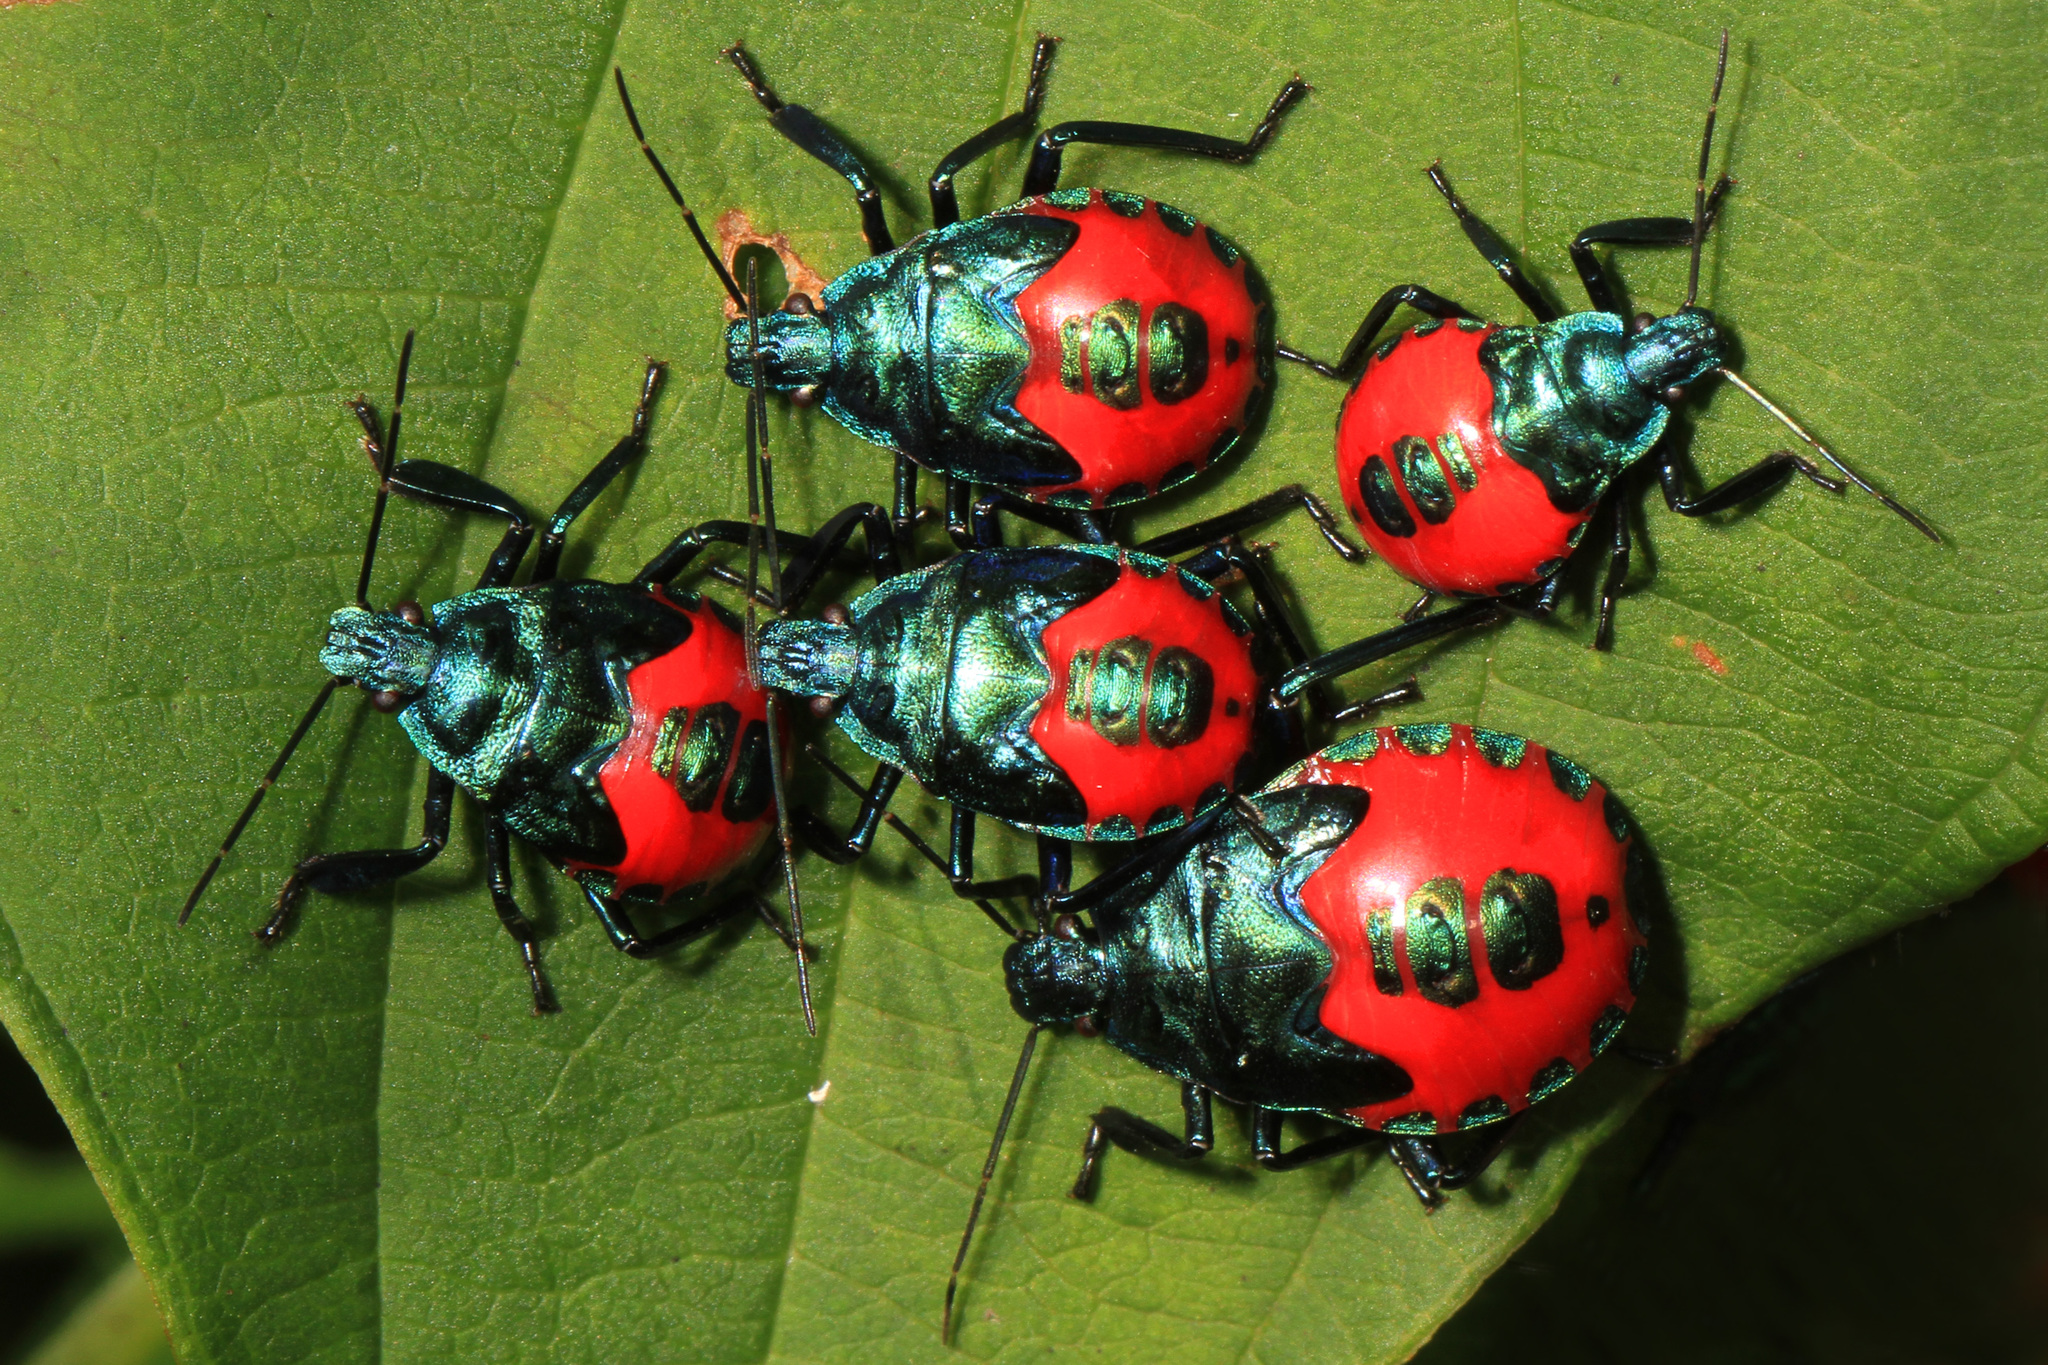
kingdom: Animalia
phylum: Arthropoda
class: Insecta
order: Hemiptera
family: Pentatomidae
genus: Euthyrhynchus
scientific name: Euthyrhynchus floridanus
